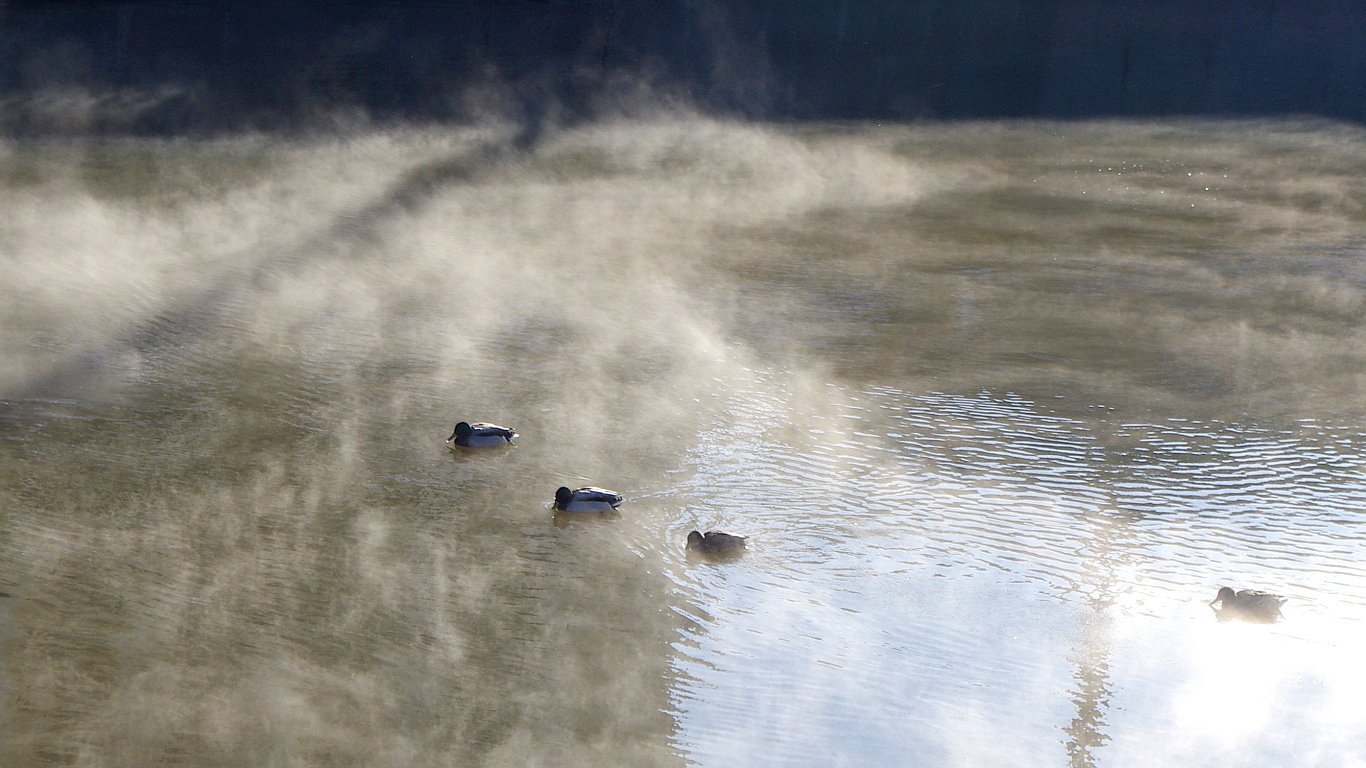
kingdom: Animalia
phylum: Chordata
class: Aves
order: Anseriformes
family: Anatidae
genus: Anas
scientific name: Anas platyrhynchos
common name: Mallard
